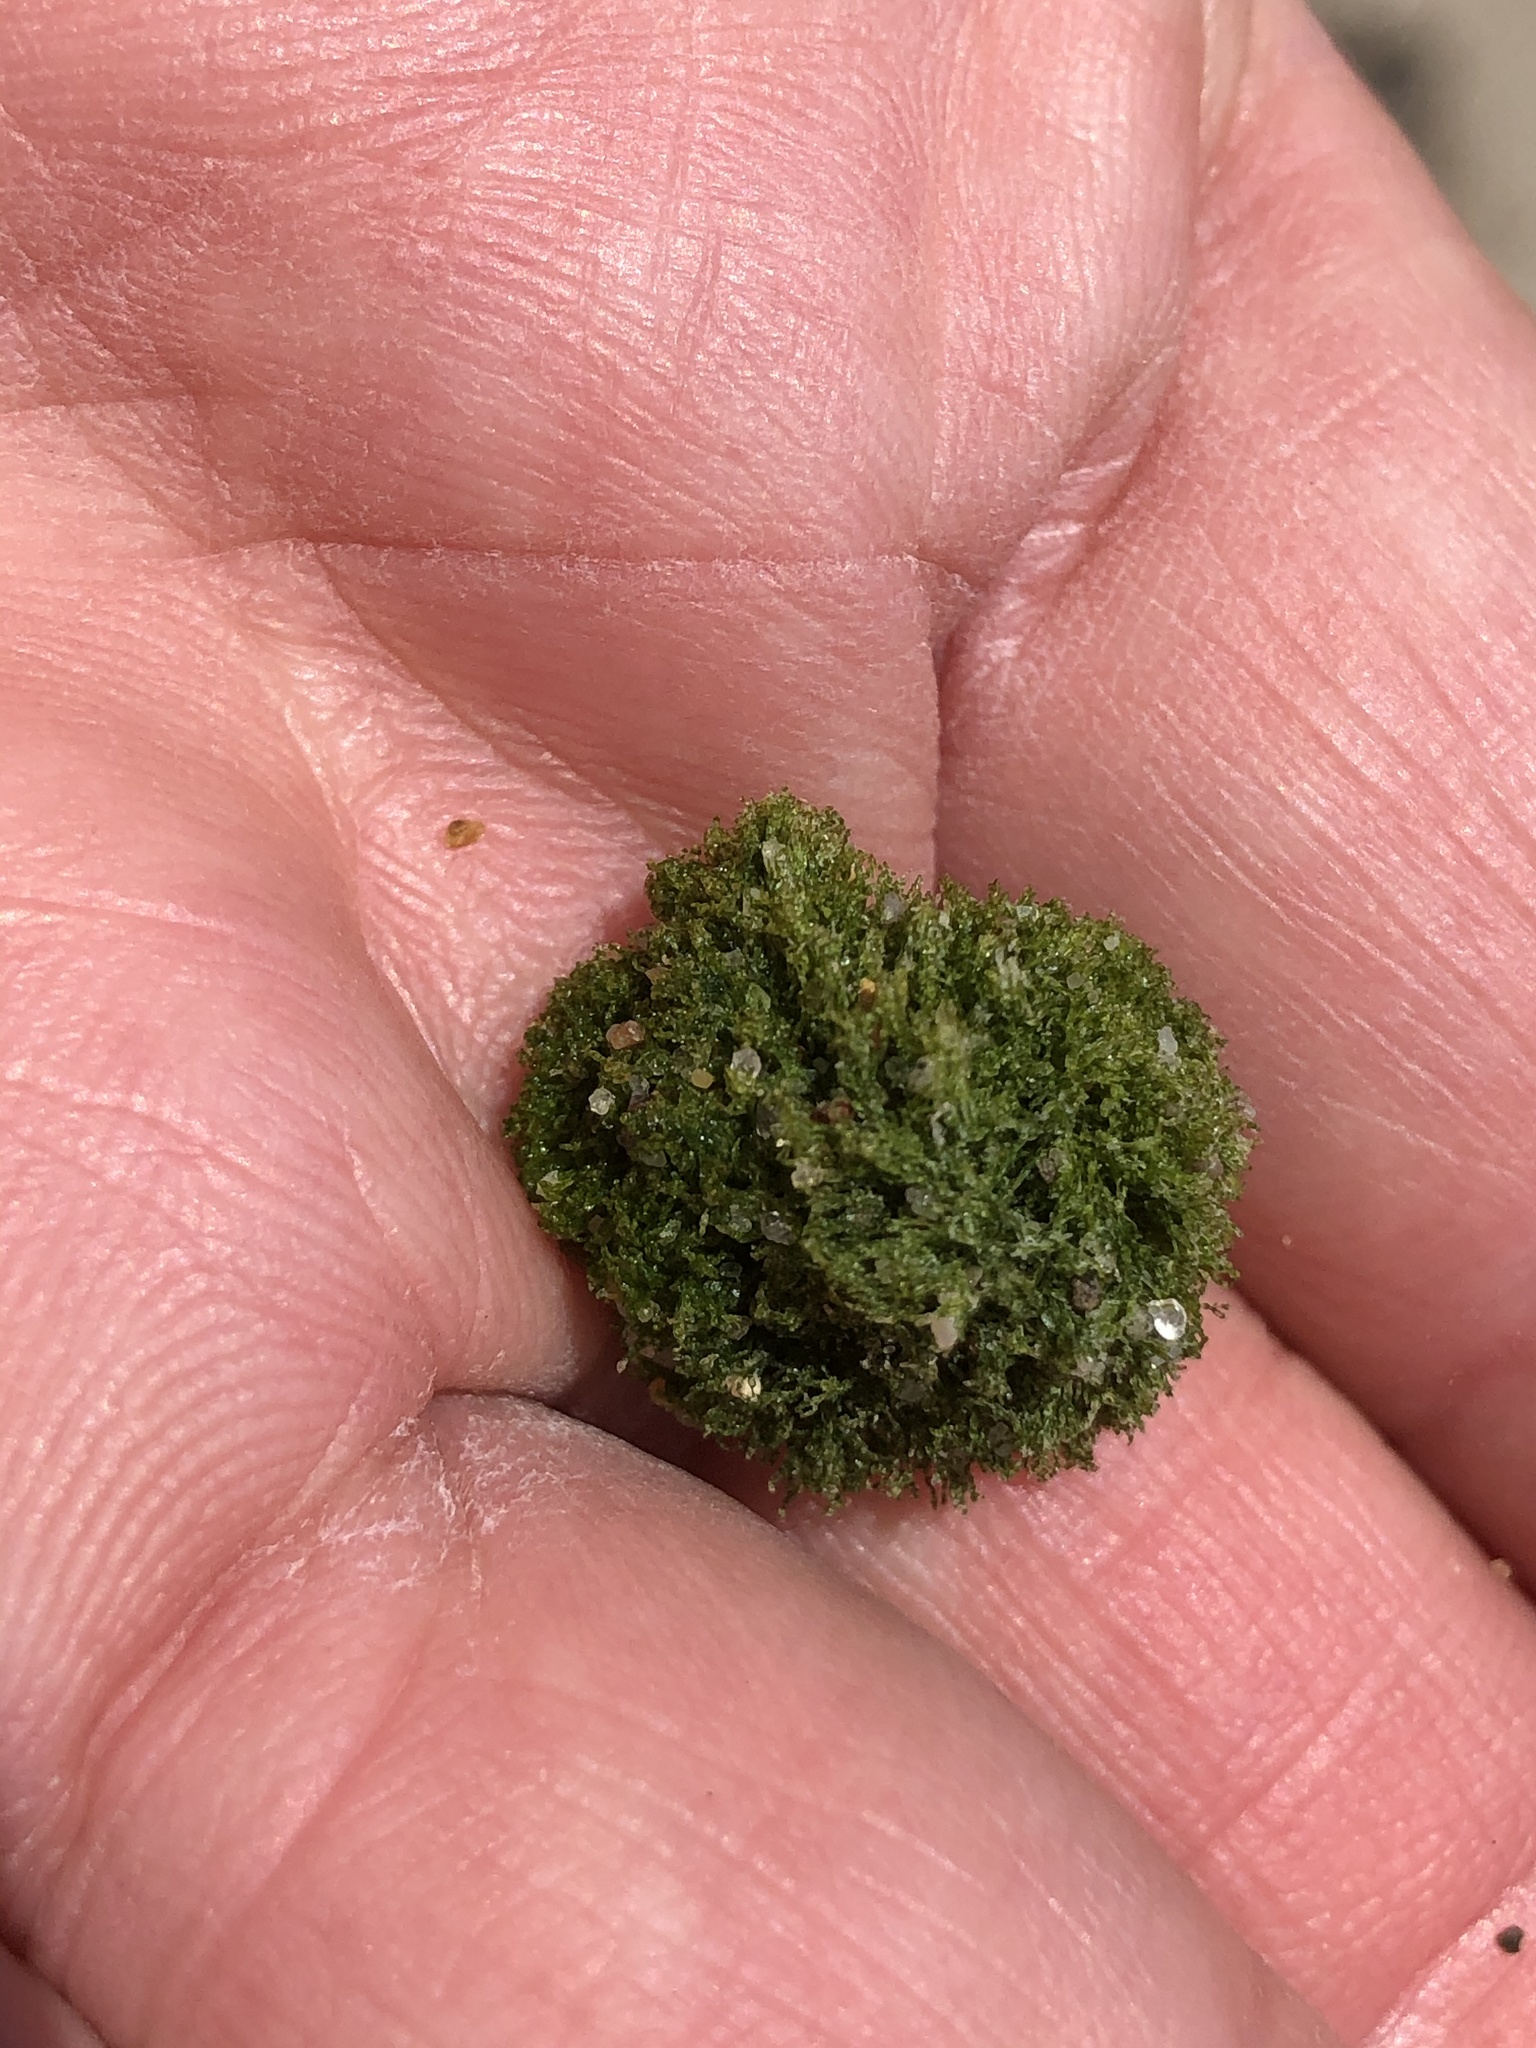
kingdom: Plantae
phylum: Chlorophyta
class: Ulvophyceae
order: Cladophorales
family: Cladophoraceae
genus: Cladophora
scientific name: Cladophora columbiana
